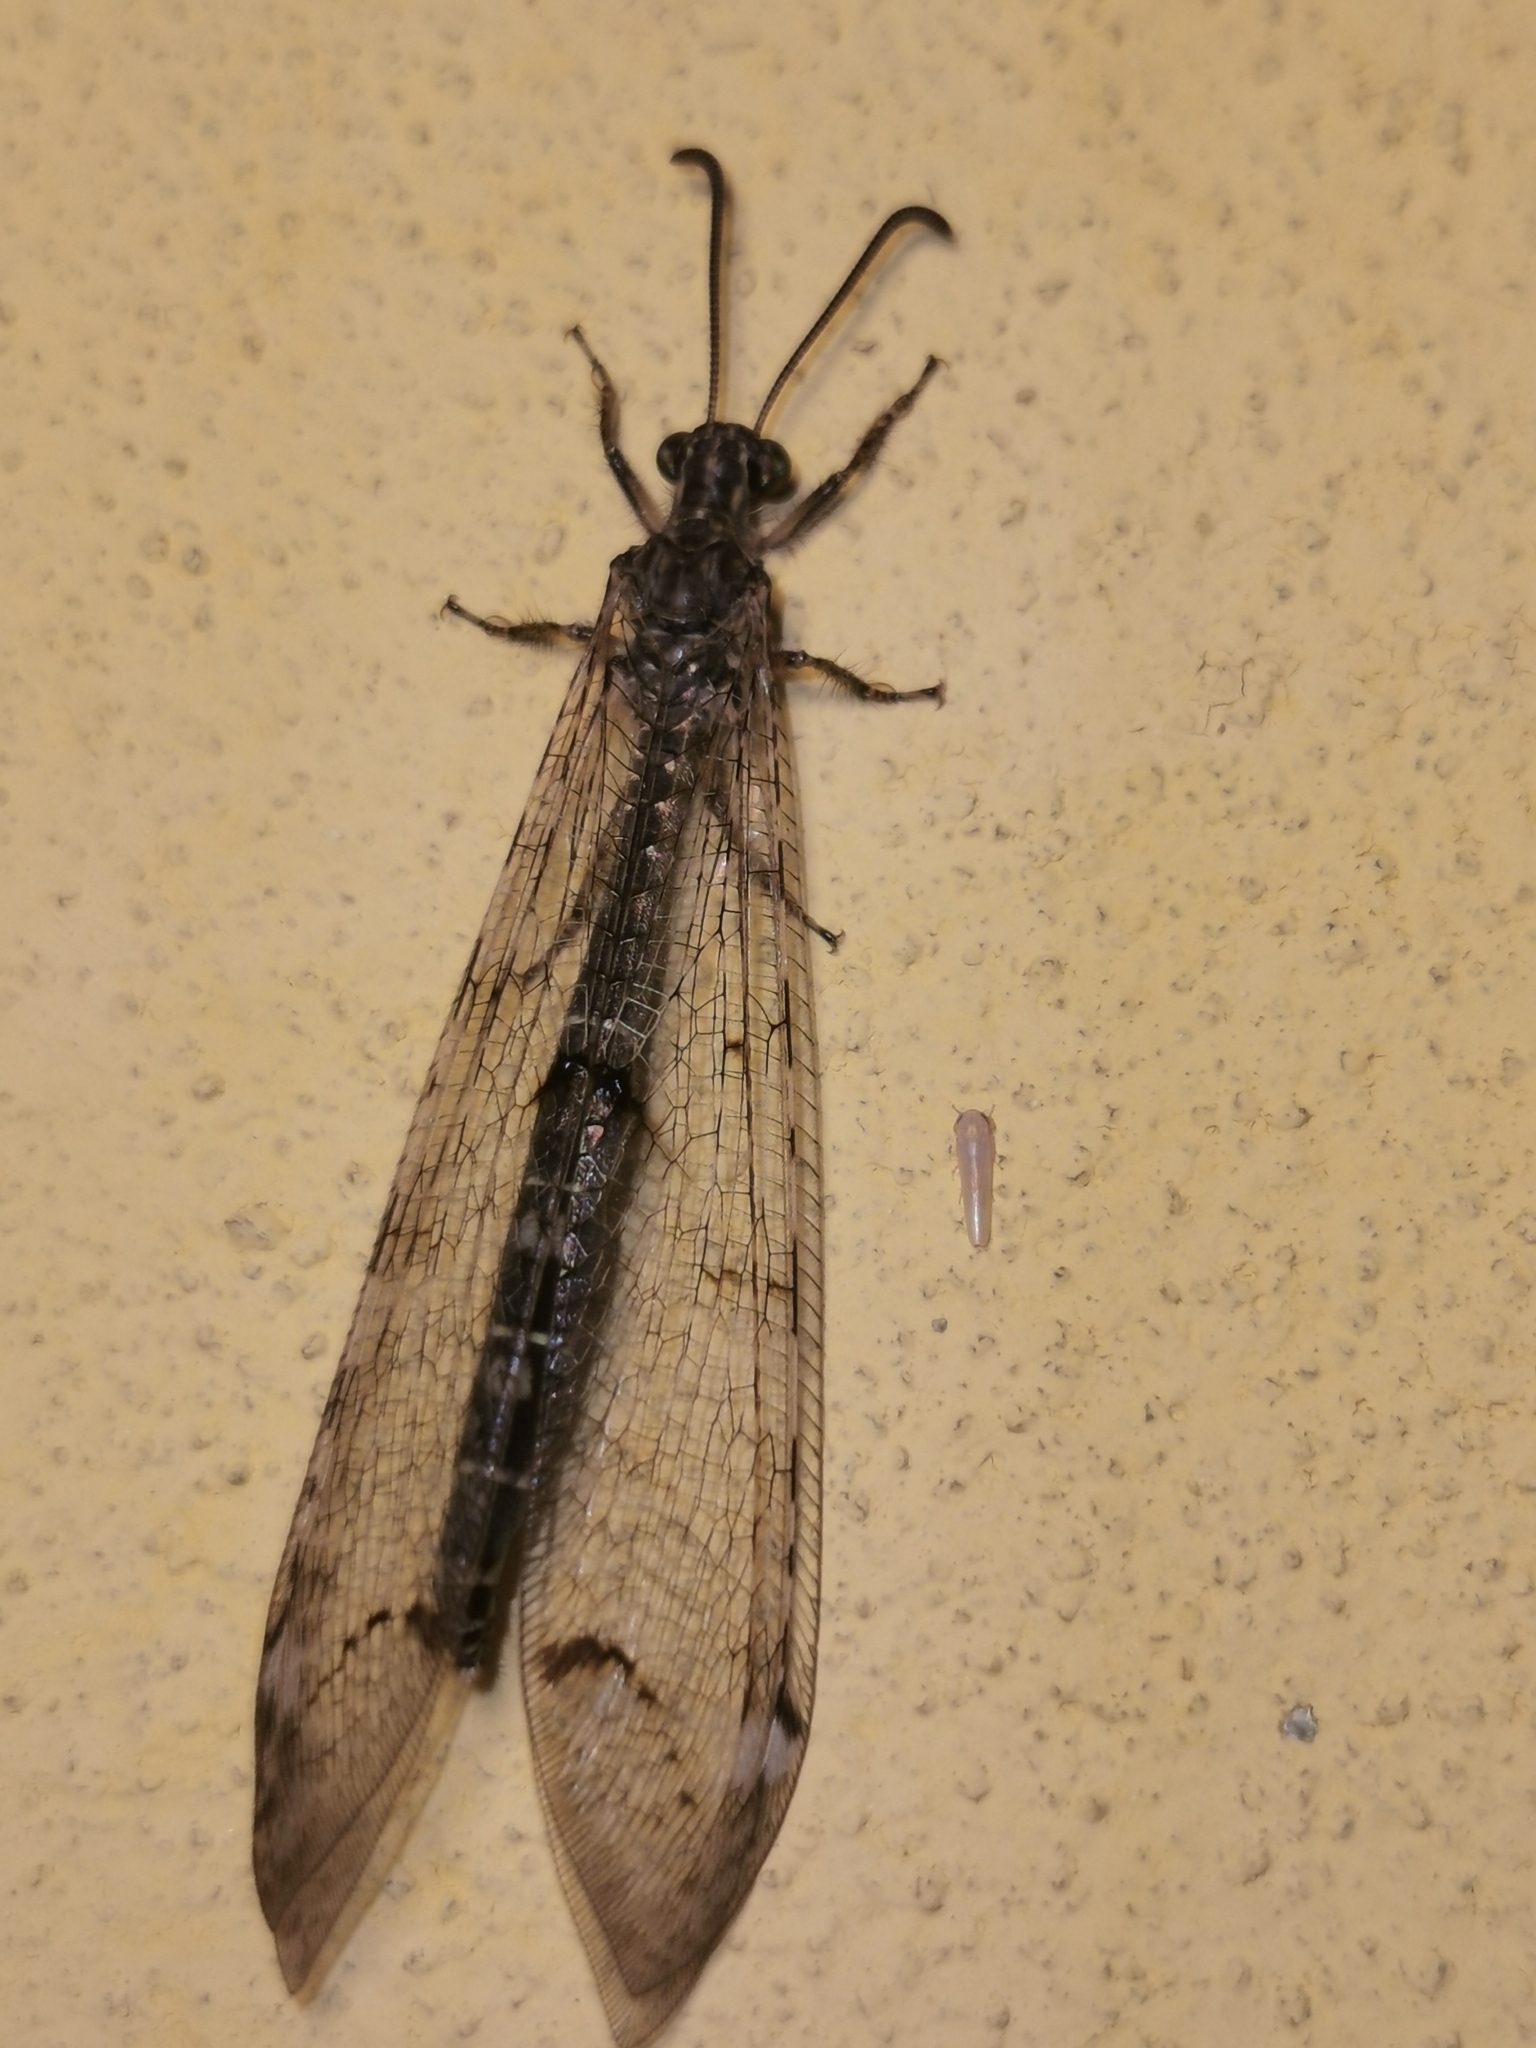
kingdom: Animalia
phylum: Arthropoda
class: Insecta
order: Neuroptera
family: Myrmeleontidae
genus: Distoleon
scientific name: Distoleon tetragrammicus
